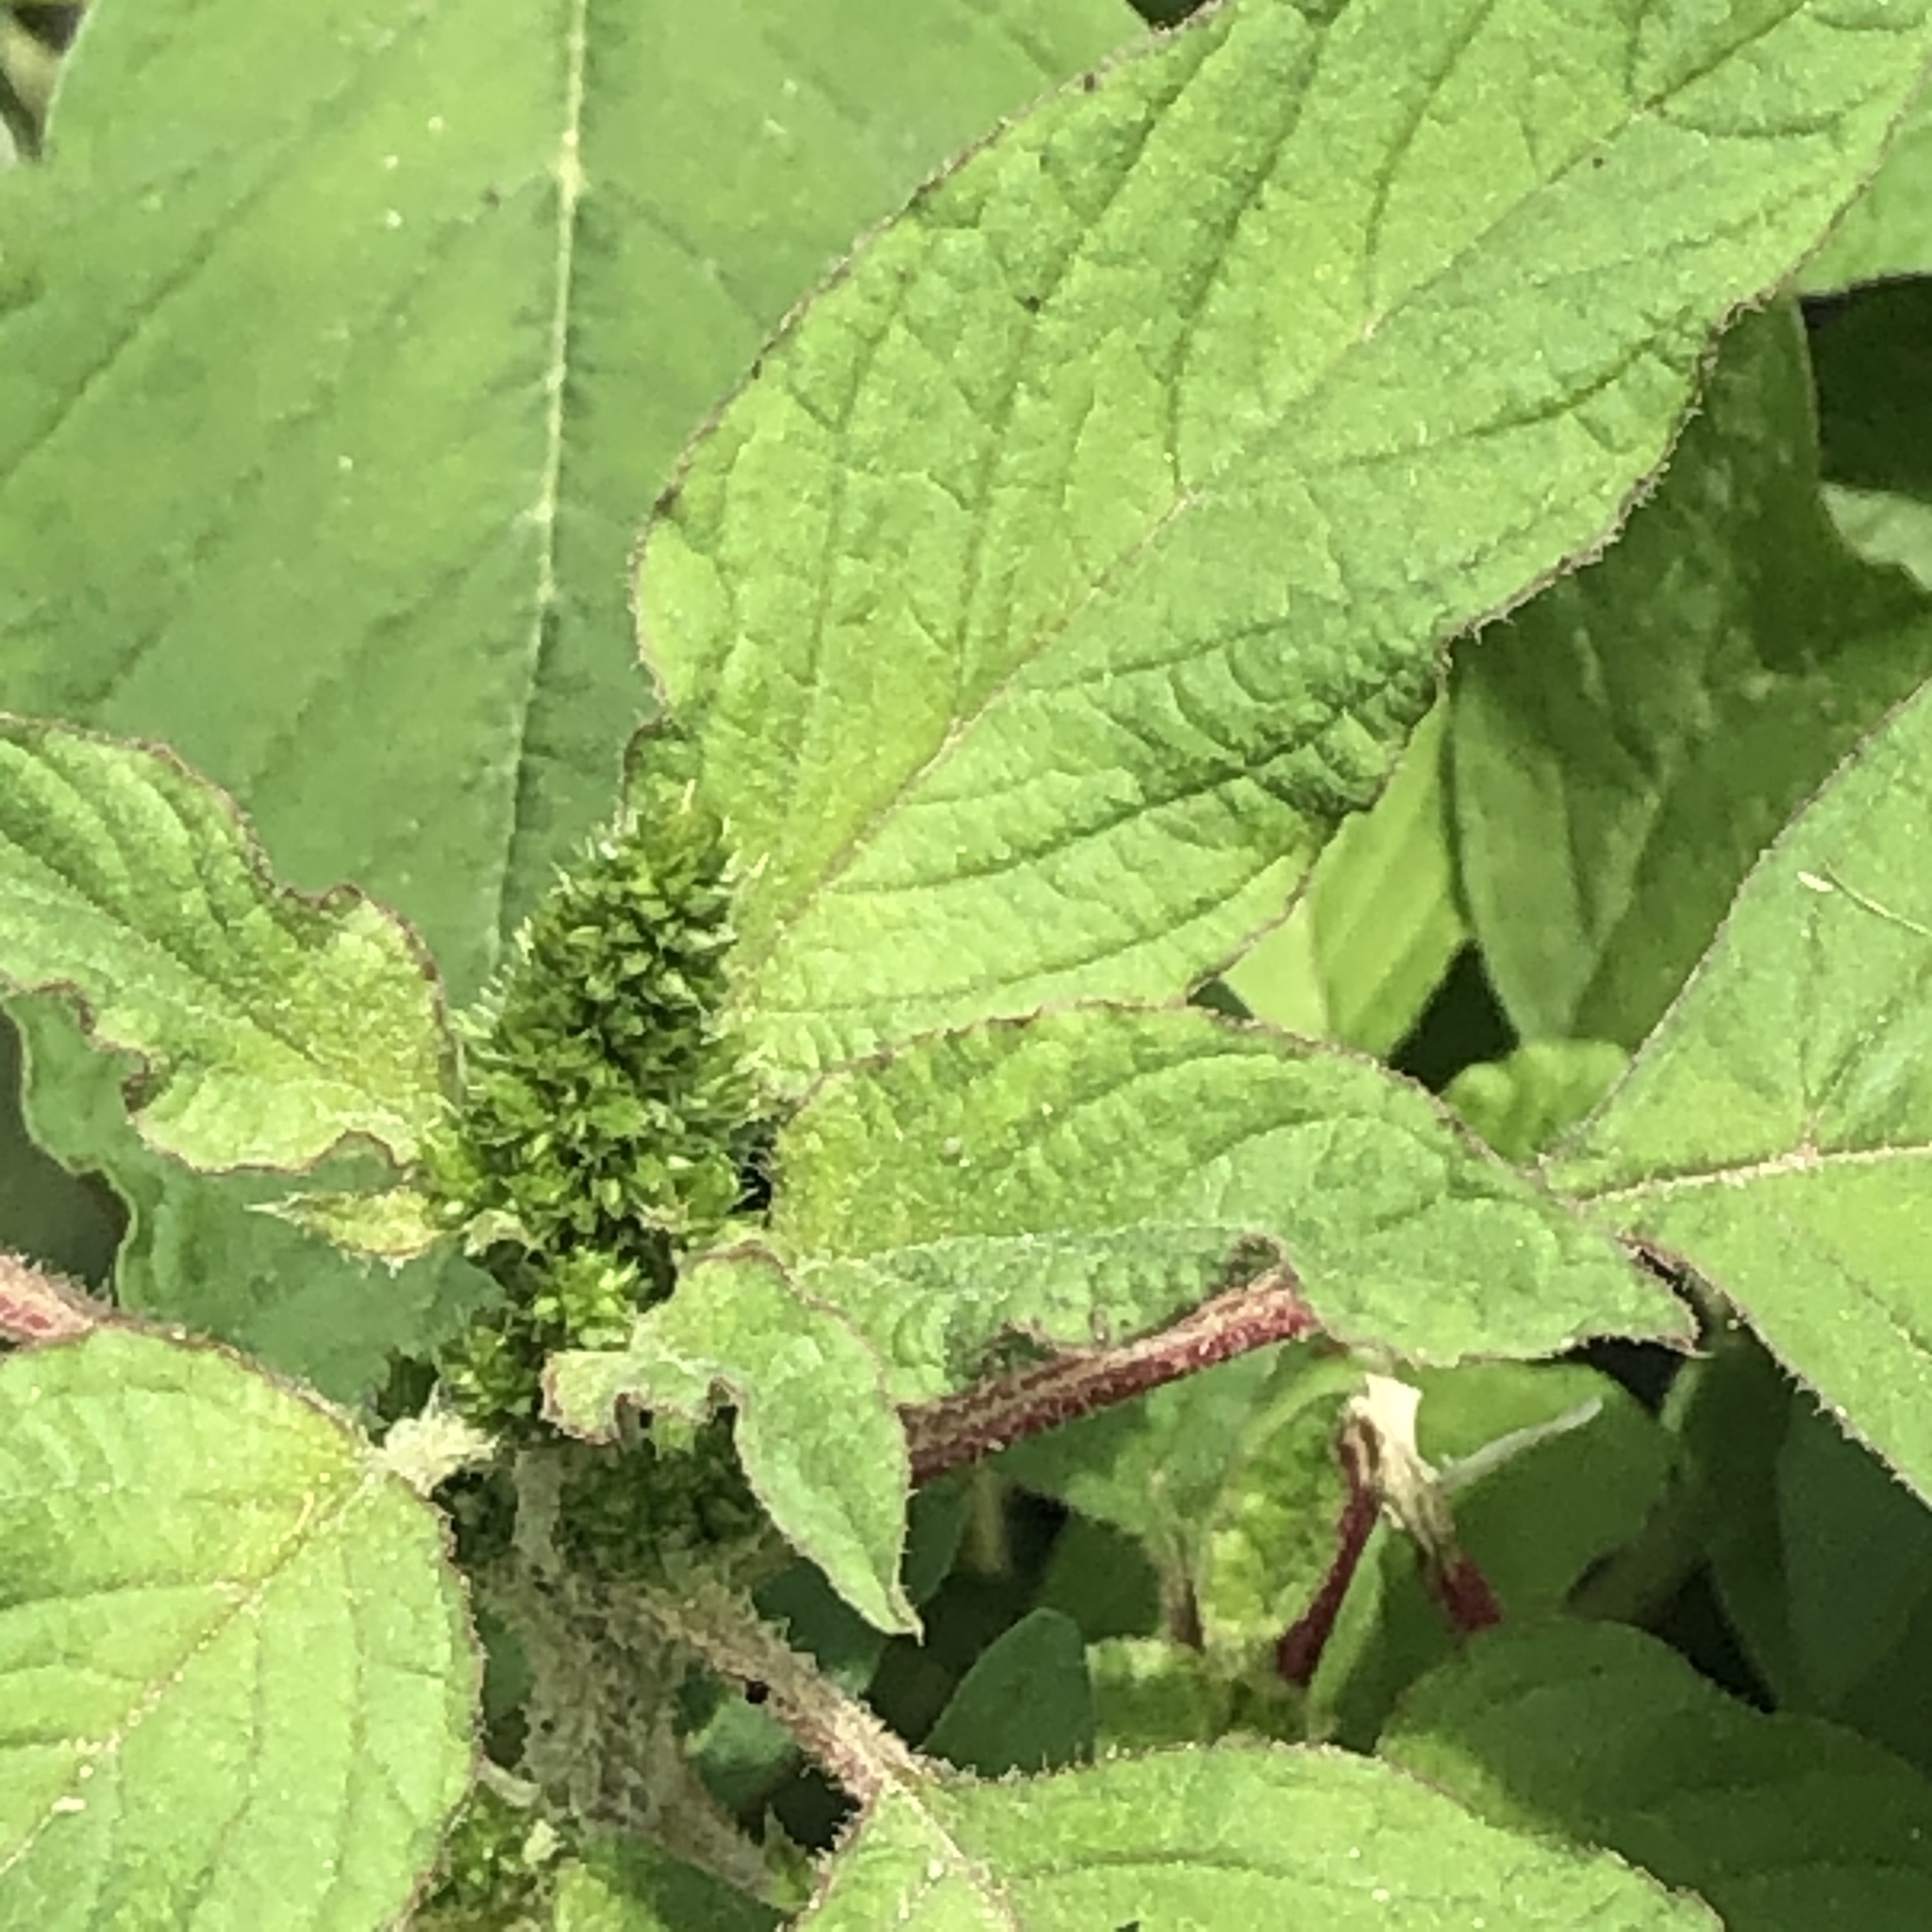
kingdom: Plantae
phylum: Tracheophyta
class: Magnoliopsida
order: Caryophyllales
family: Amaranthaceae
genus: Amaranthus
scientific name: Amaranthus retroflexus
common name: Redroot amaranth
